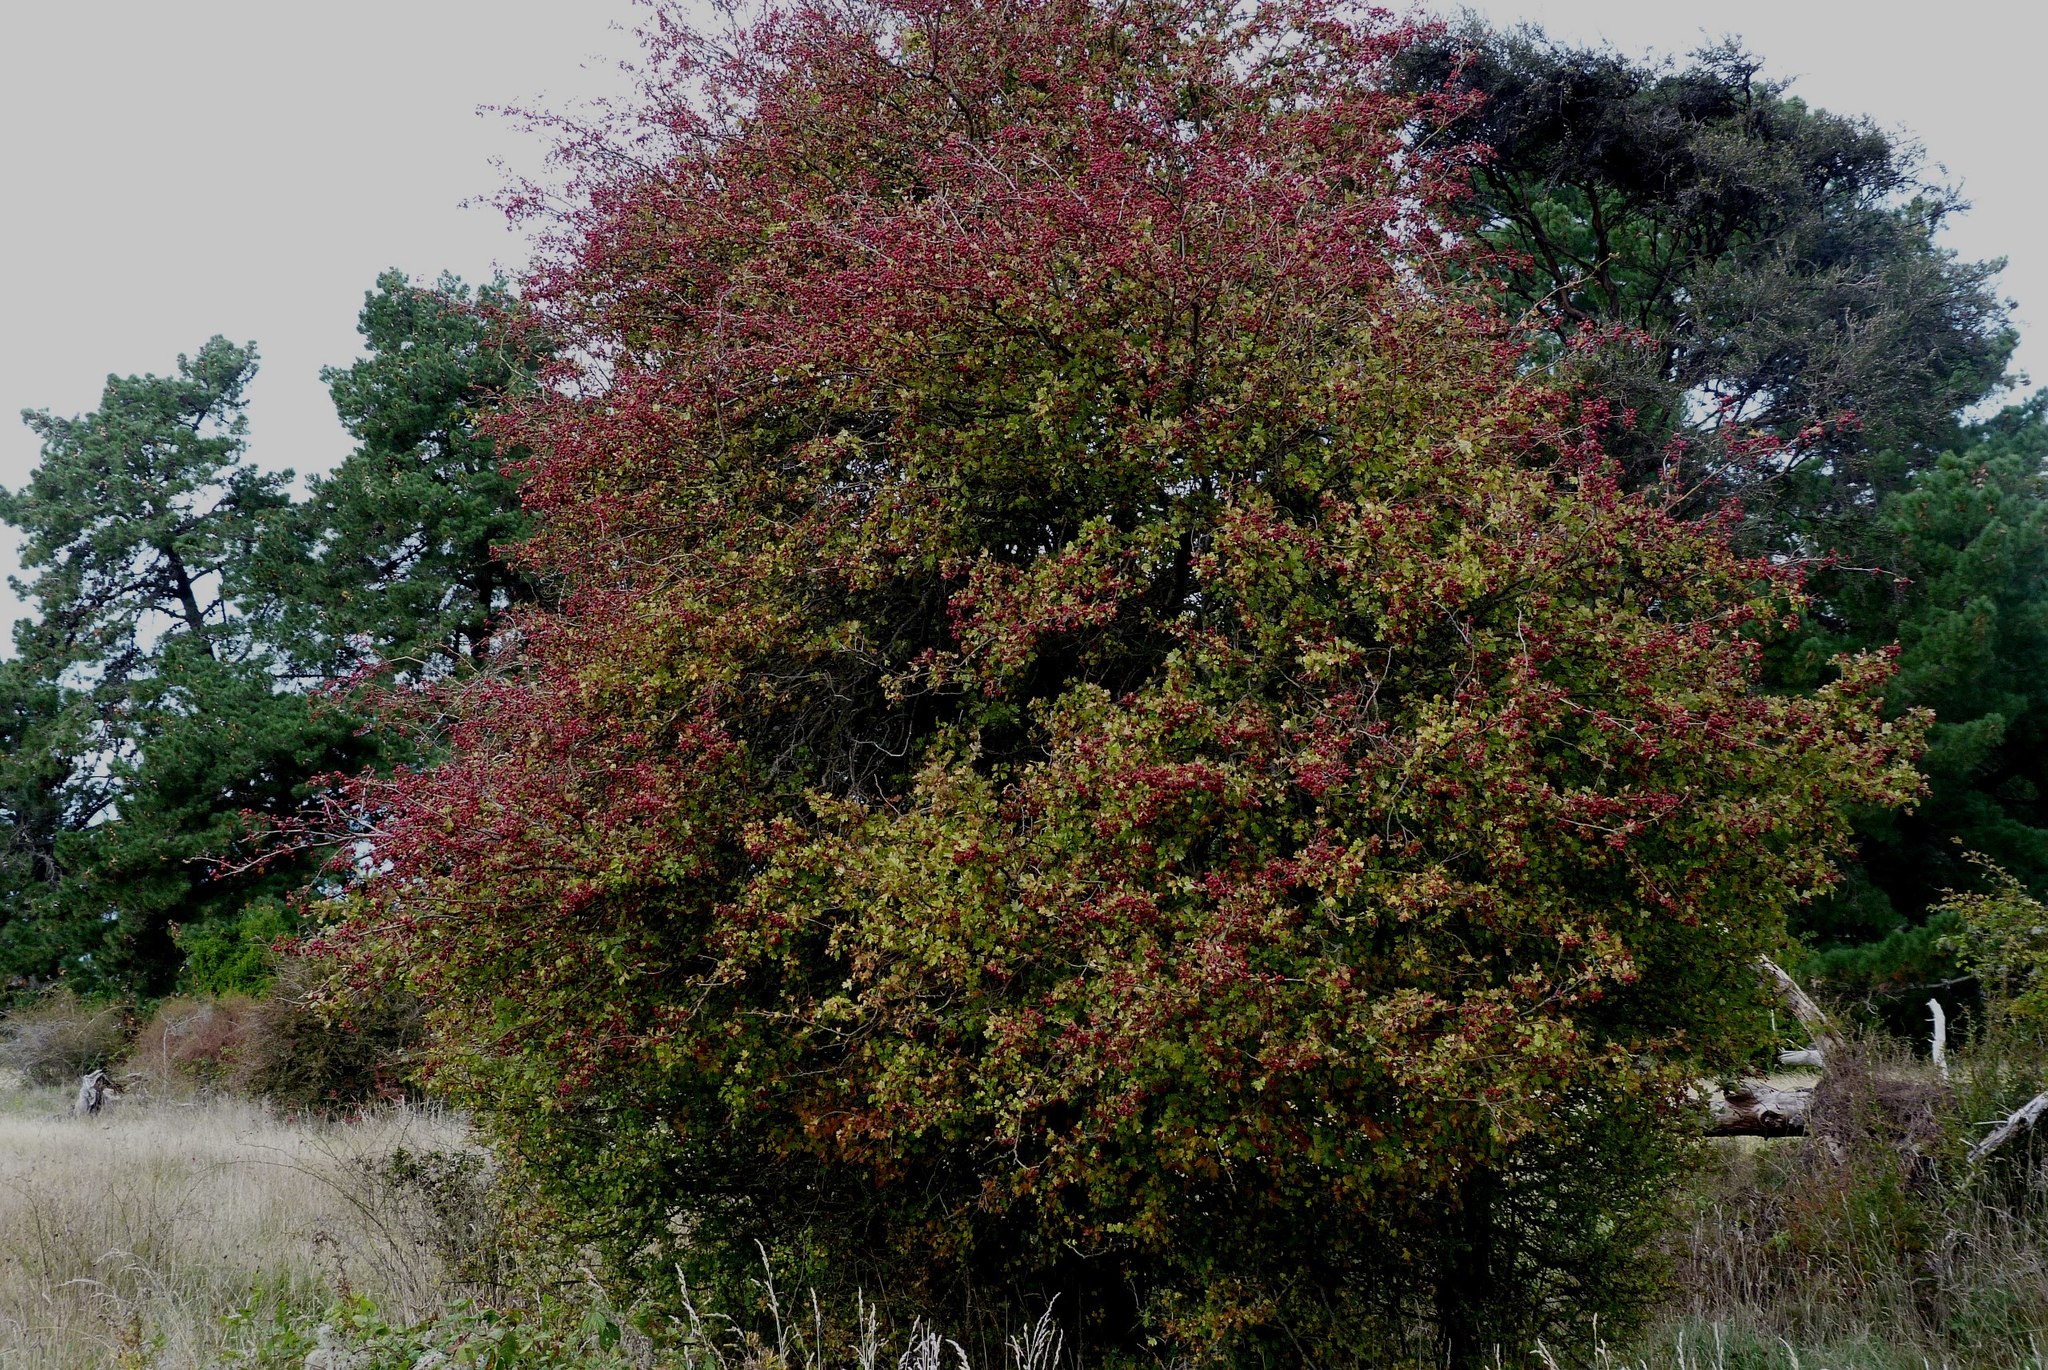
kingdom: Plantae
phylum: Tracheophyta
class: Magnoliopsida
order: Rosales
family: Rosaceae
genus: Crataegus
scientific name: Crataegus monogyna
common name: Hawthorn
